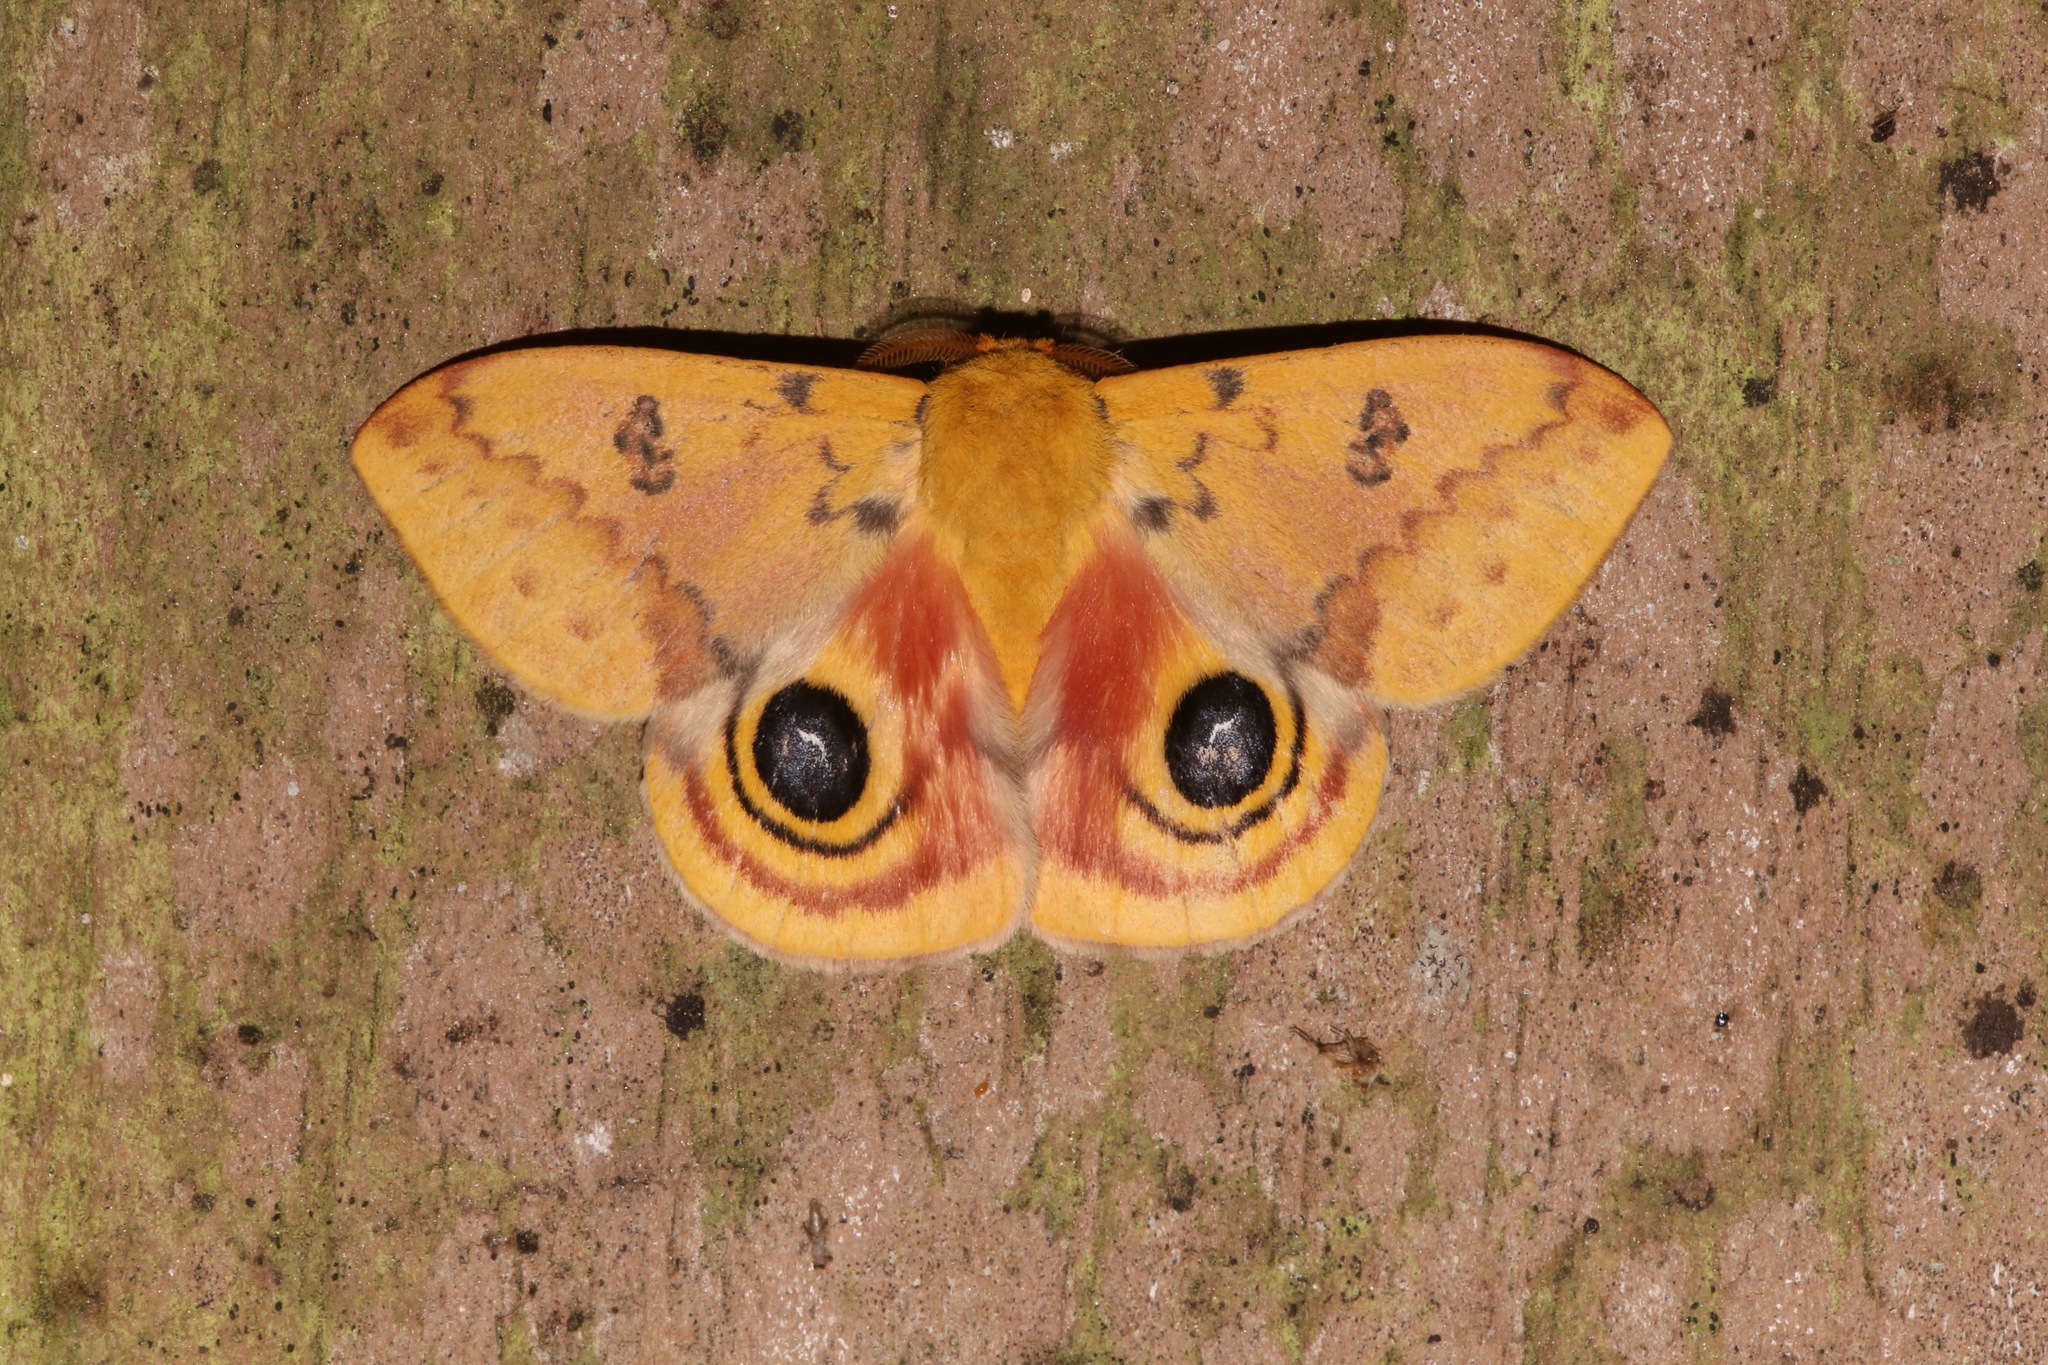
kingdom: Animalia
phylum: Arthropoda
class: Insecta
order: Lepidoptera
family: Saturniidae
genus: Automeris
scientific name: Automeris io
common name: Io moth
